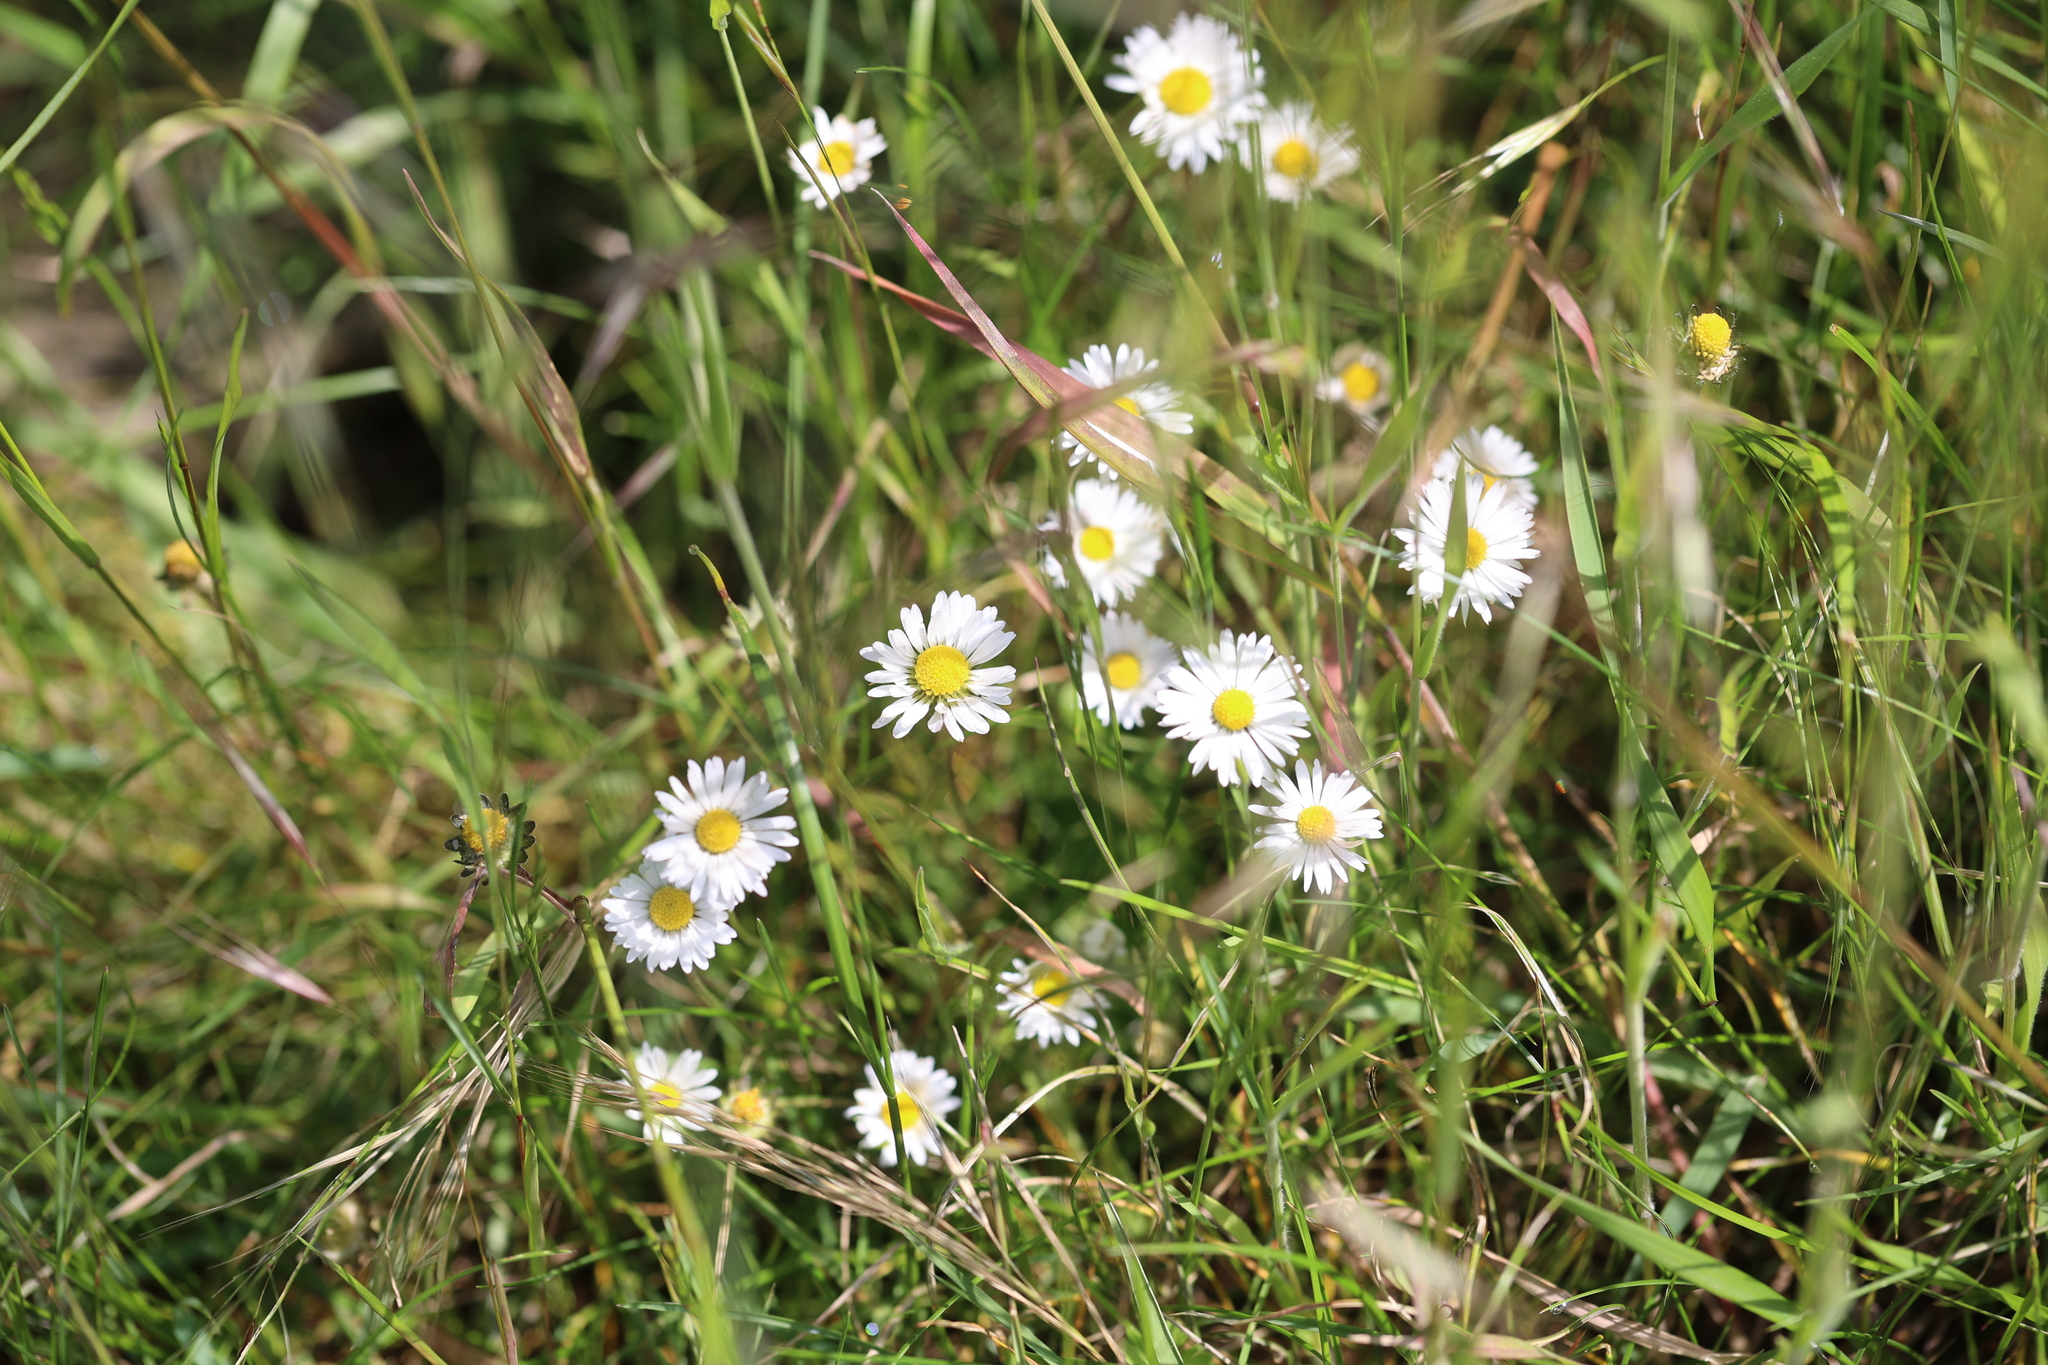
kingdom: Plantae
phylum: Tracheophyta
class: Magnoliopsida
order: Asterales
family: Asteraceae
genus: Bellis
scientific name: Bellis perennis
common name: Lawndaisy
